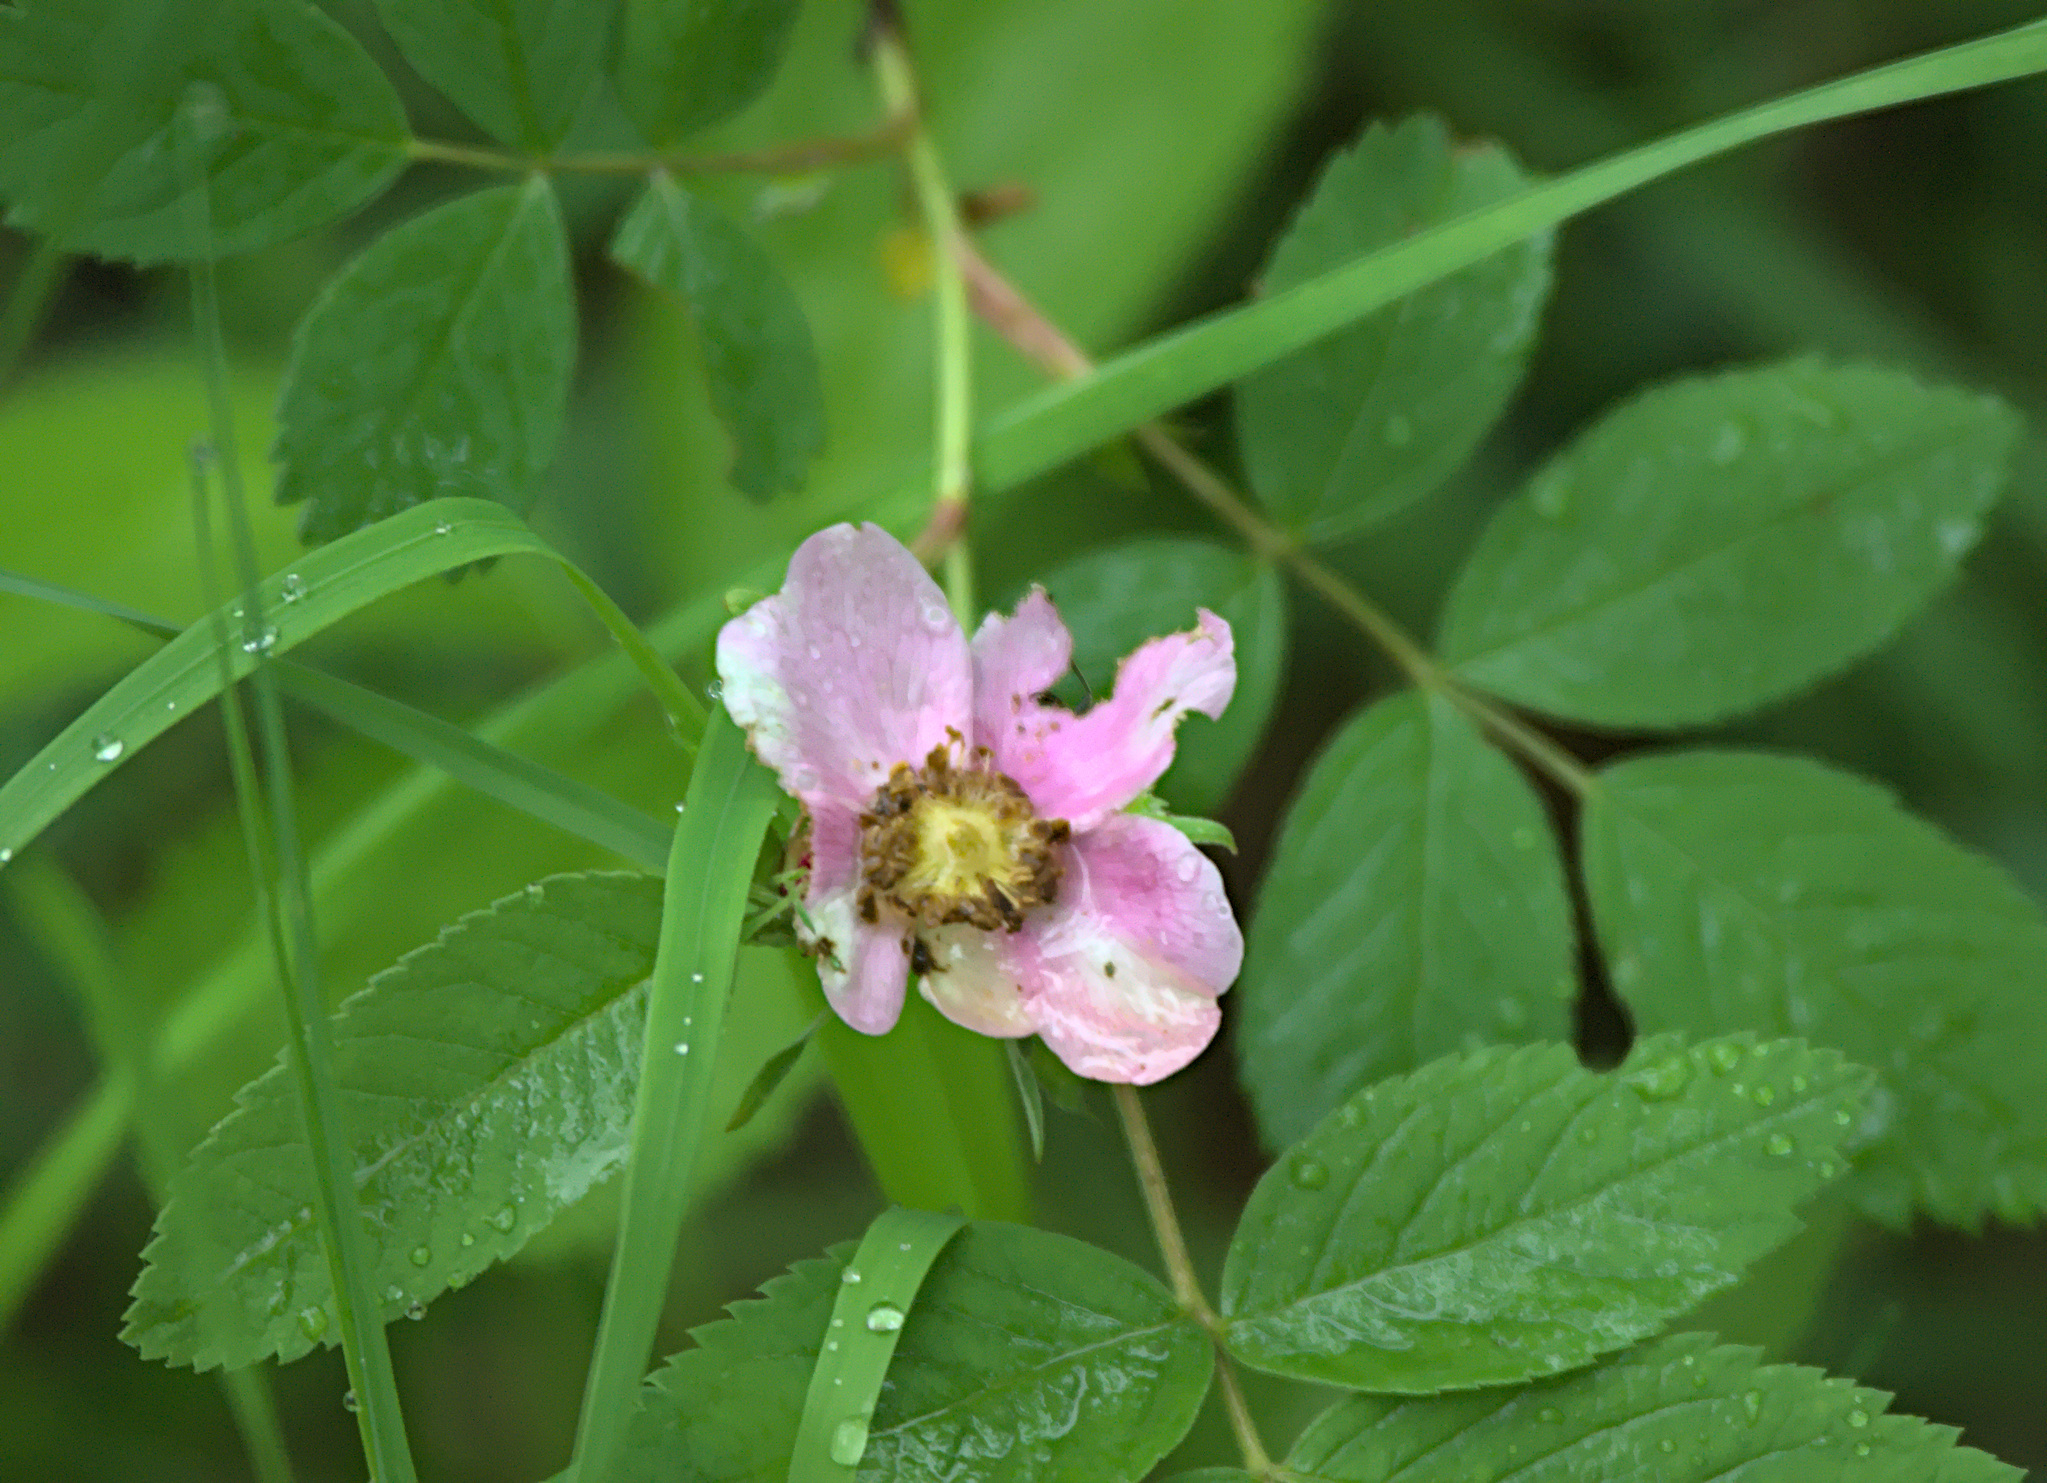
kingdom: Plantae
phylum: Tracheophyta
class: Magnoliopsida
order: Rosales
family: Rosaceae
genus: Rosa
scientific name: Rosa majalis
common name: Cinnamon rose
